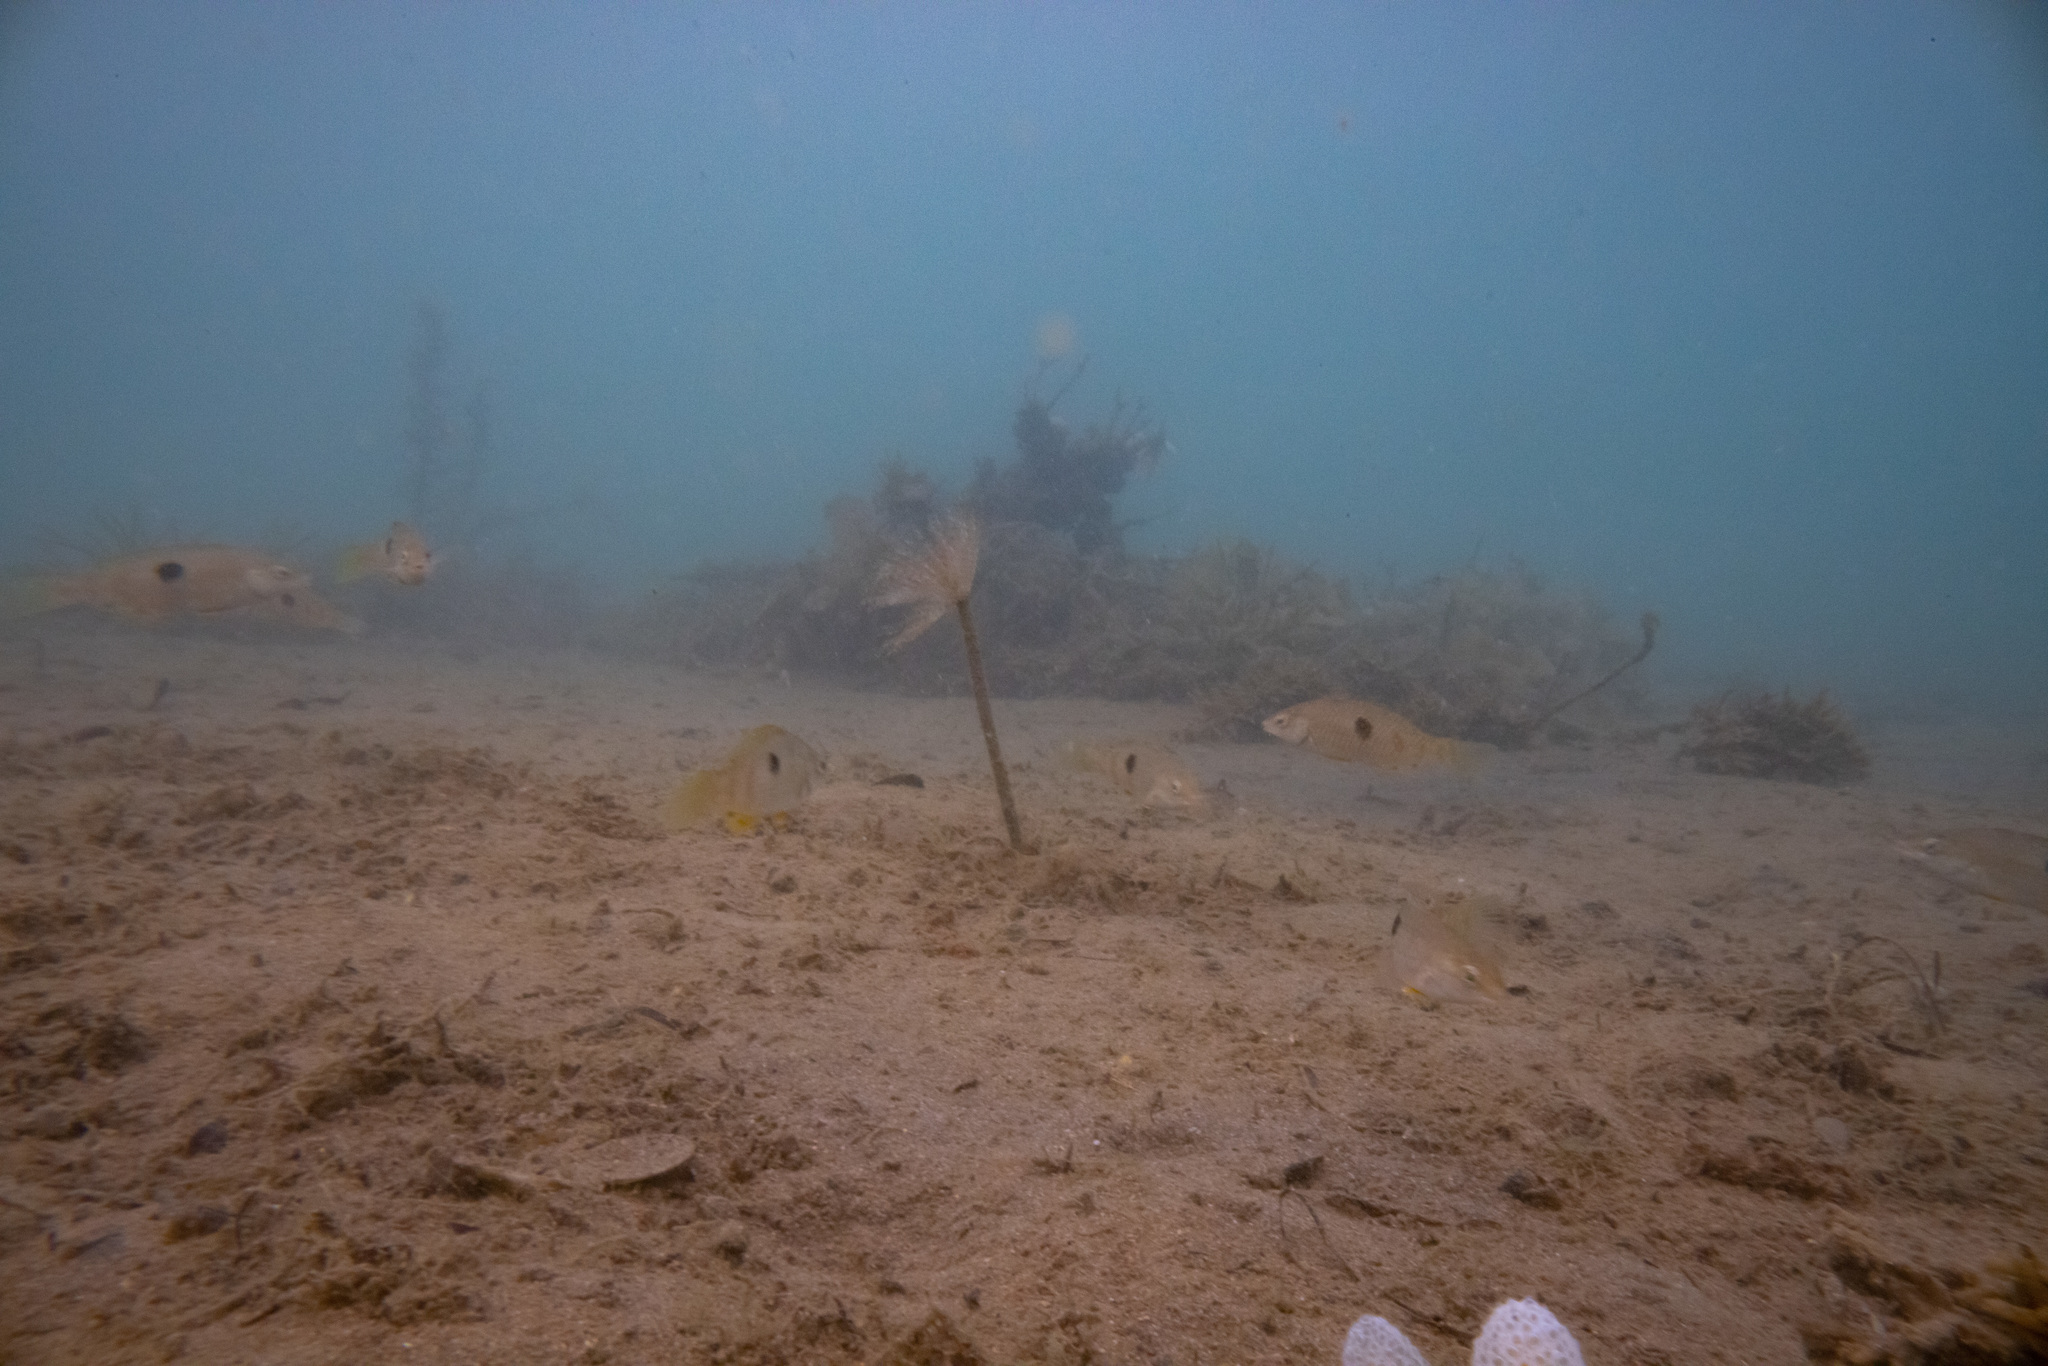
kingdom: Animalia
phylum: Chordata
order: Perciformes
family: Labridae
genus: Notolabrus
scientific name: Notolabrus celidotus
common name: Spotty
